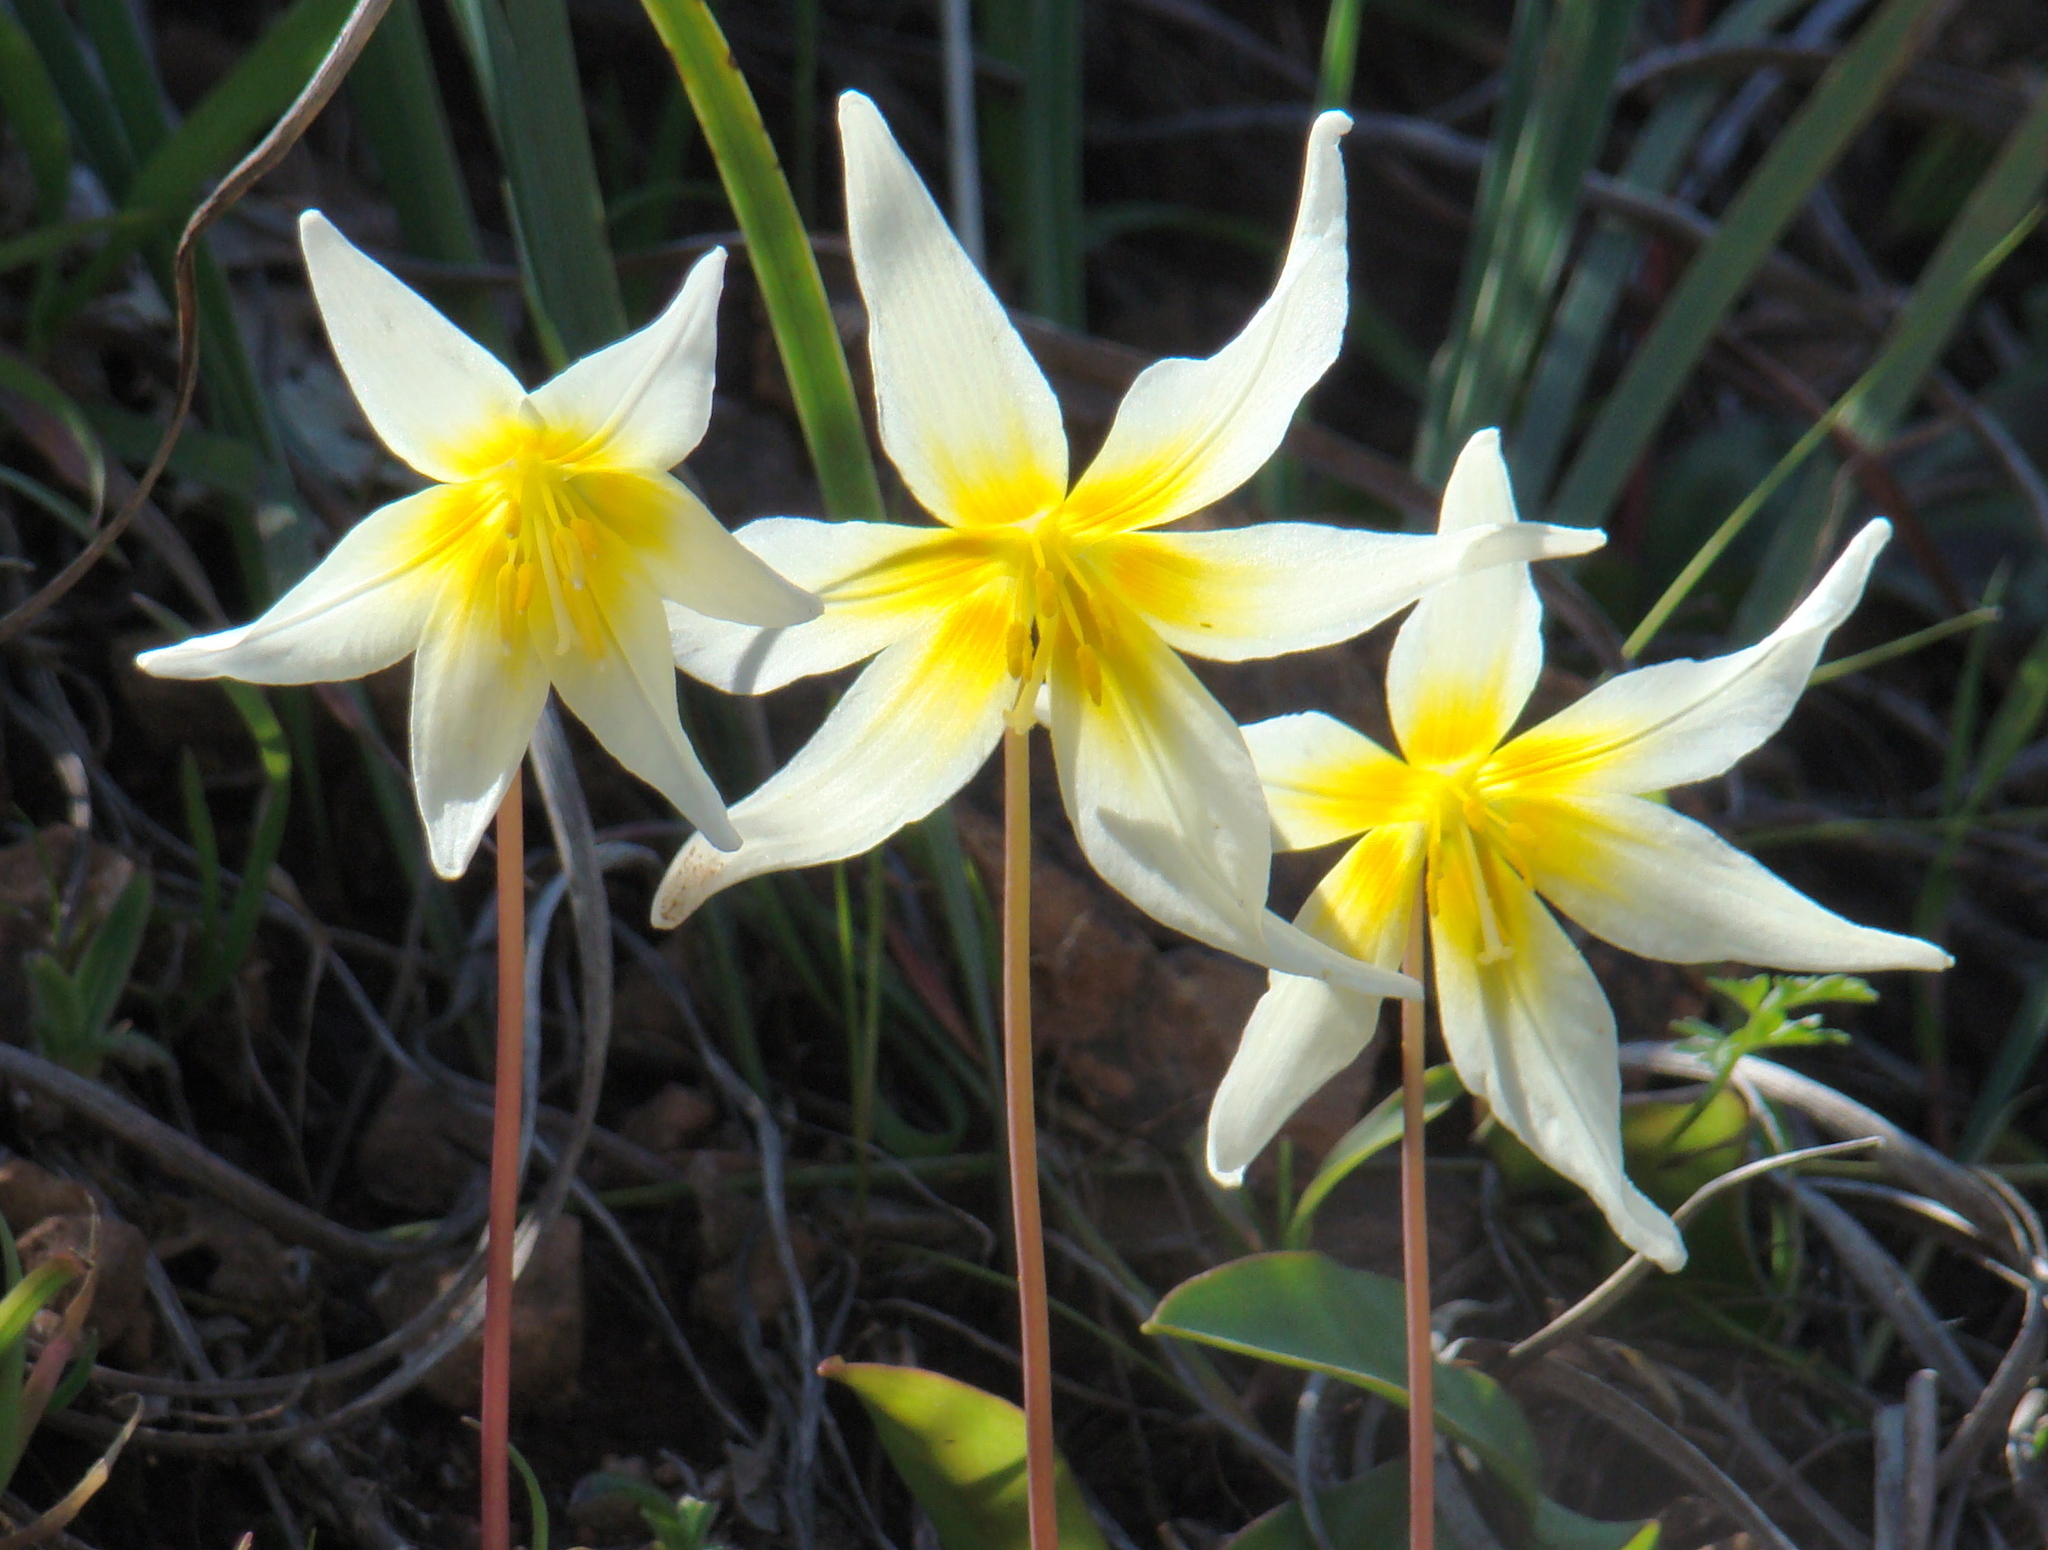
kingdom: Plantae
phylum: Tracheophyta
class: Liliopsida
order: Liliales
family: Liliaceae
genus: Erythronium
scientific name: Erythronium helenae
